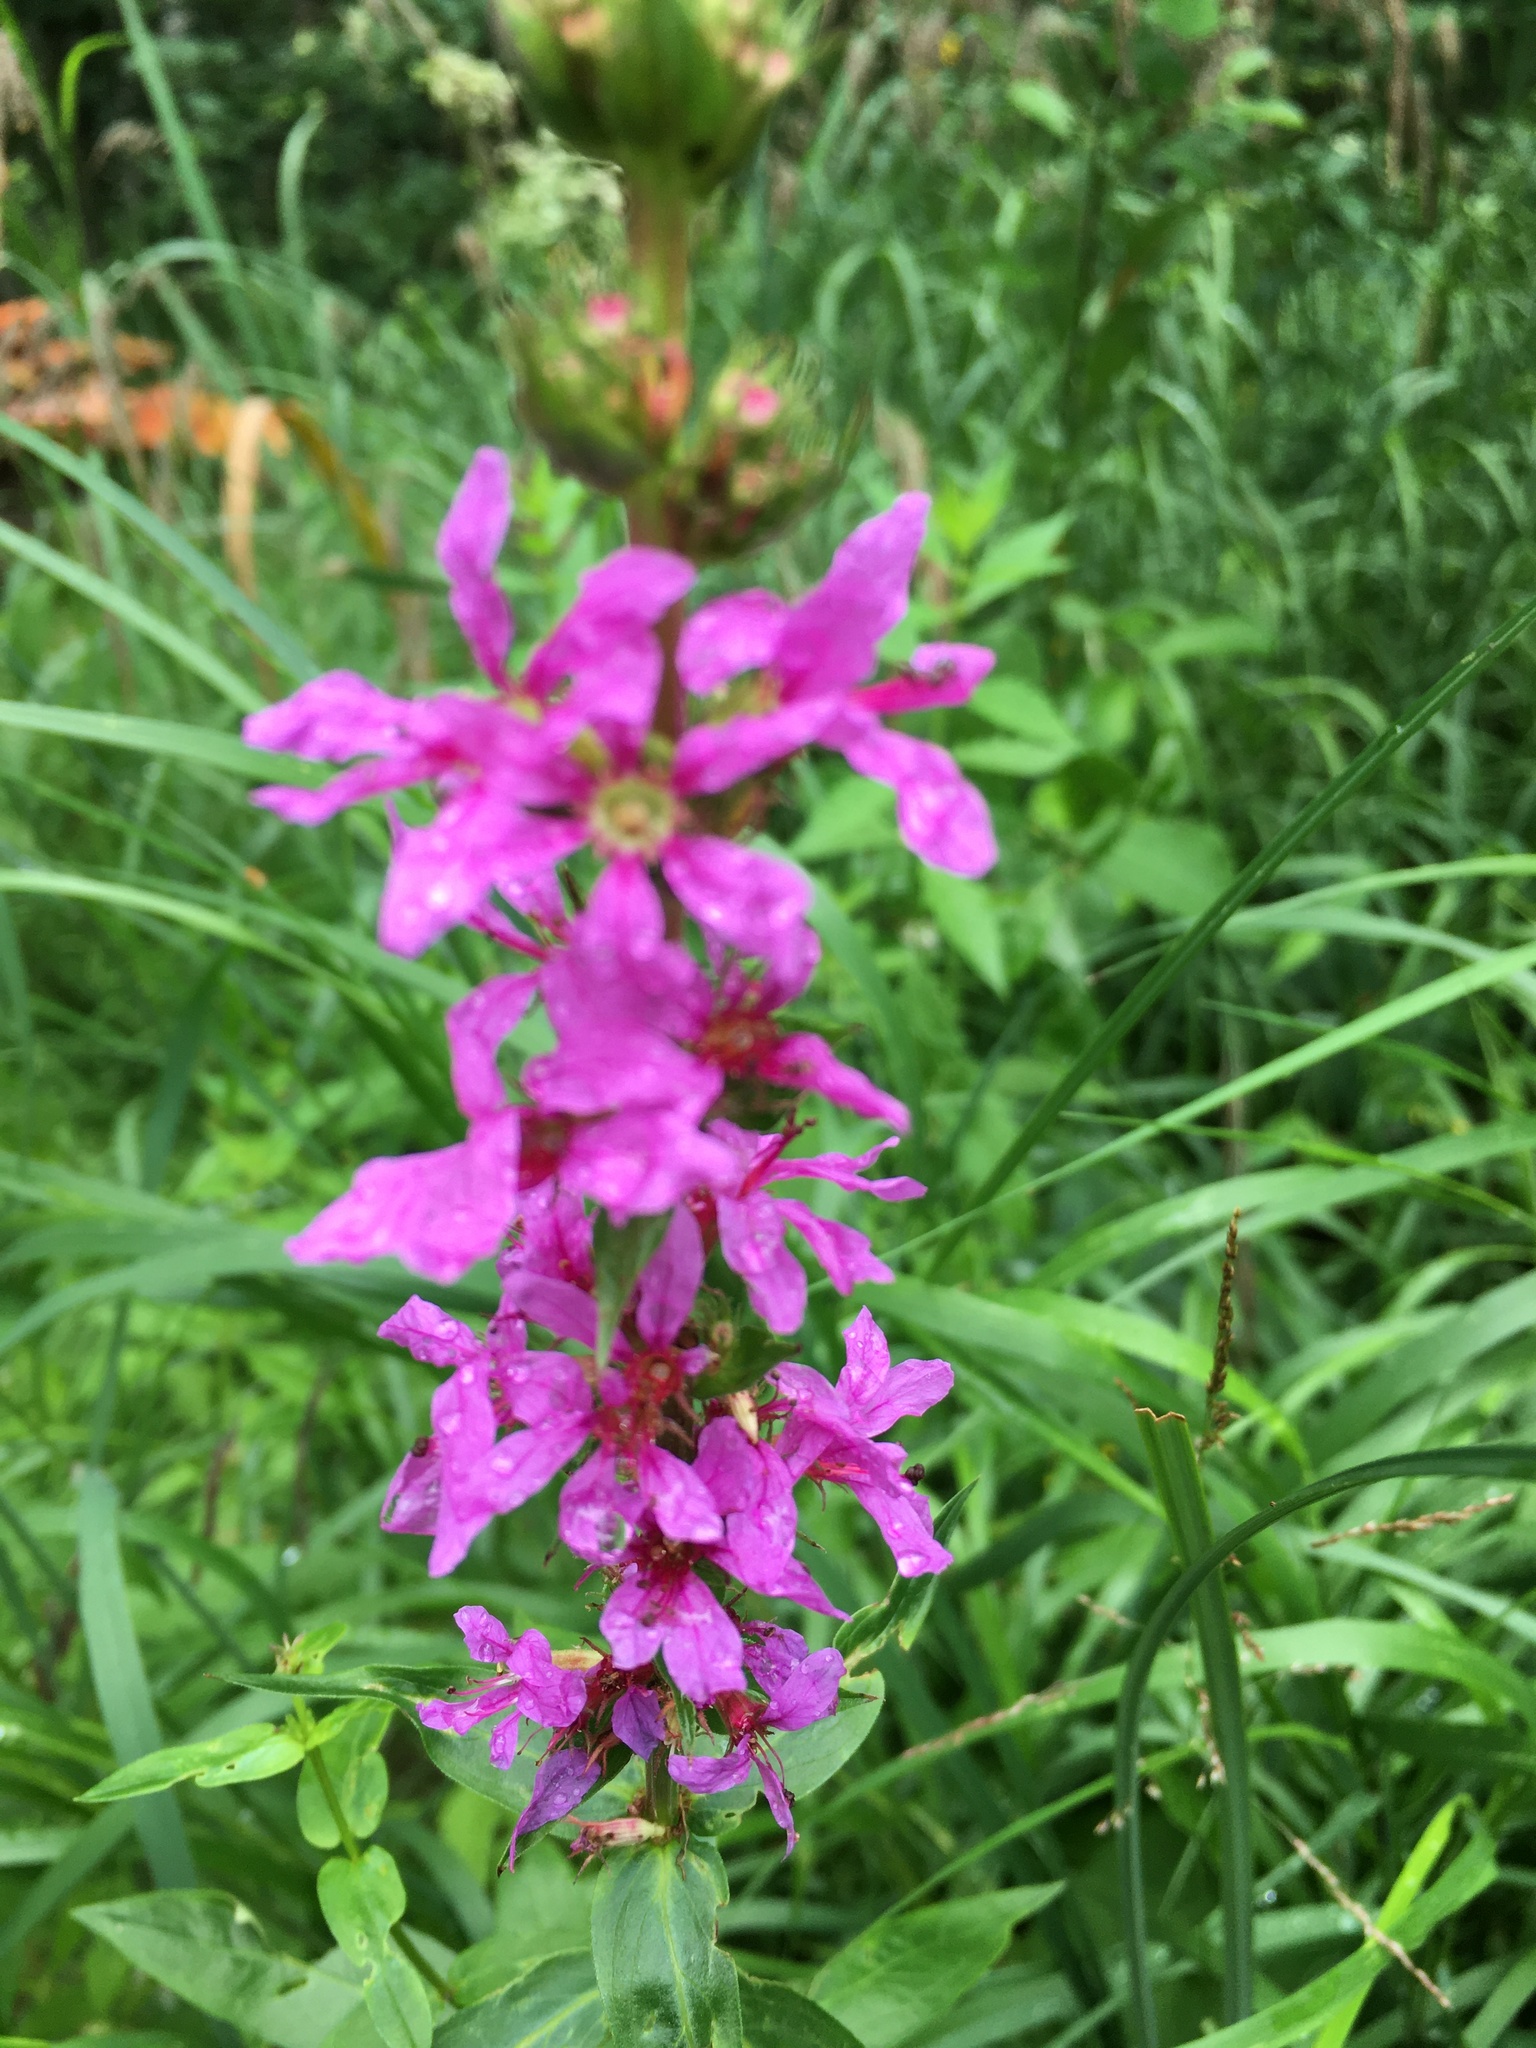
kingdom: Plantae
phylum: Tracheophyta
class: Magnoliopsida
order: Myrtales
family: Lythraceae
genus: Lythrum
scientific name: Lythrum salicaria
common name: Purple loosestrife
